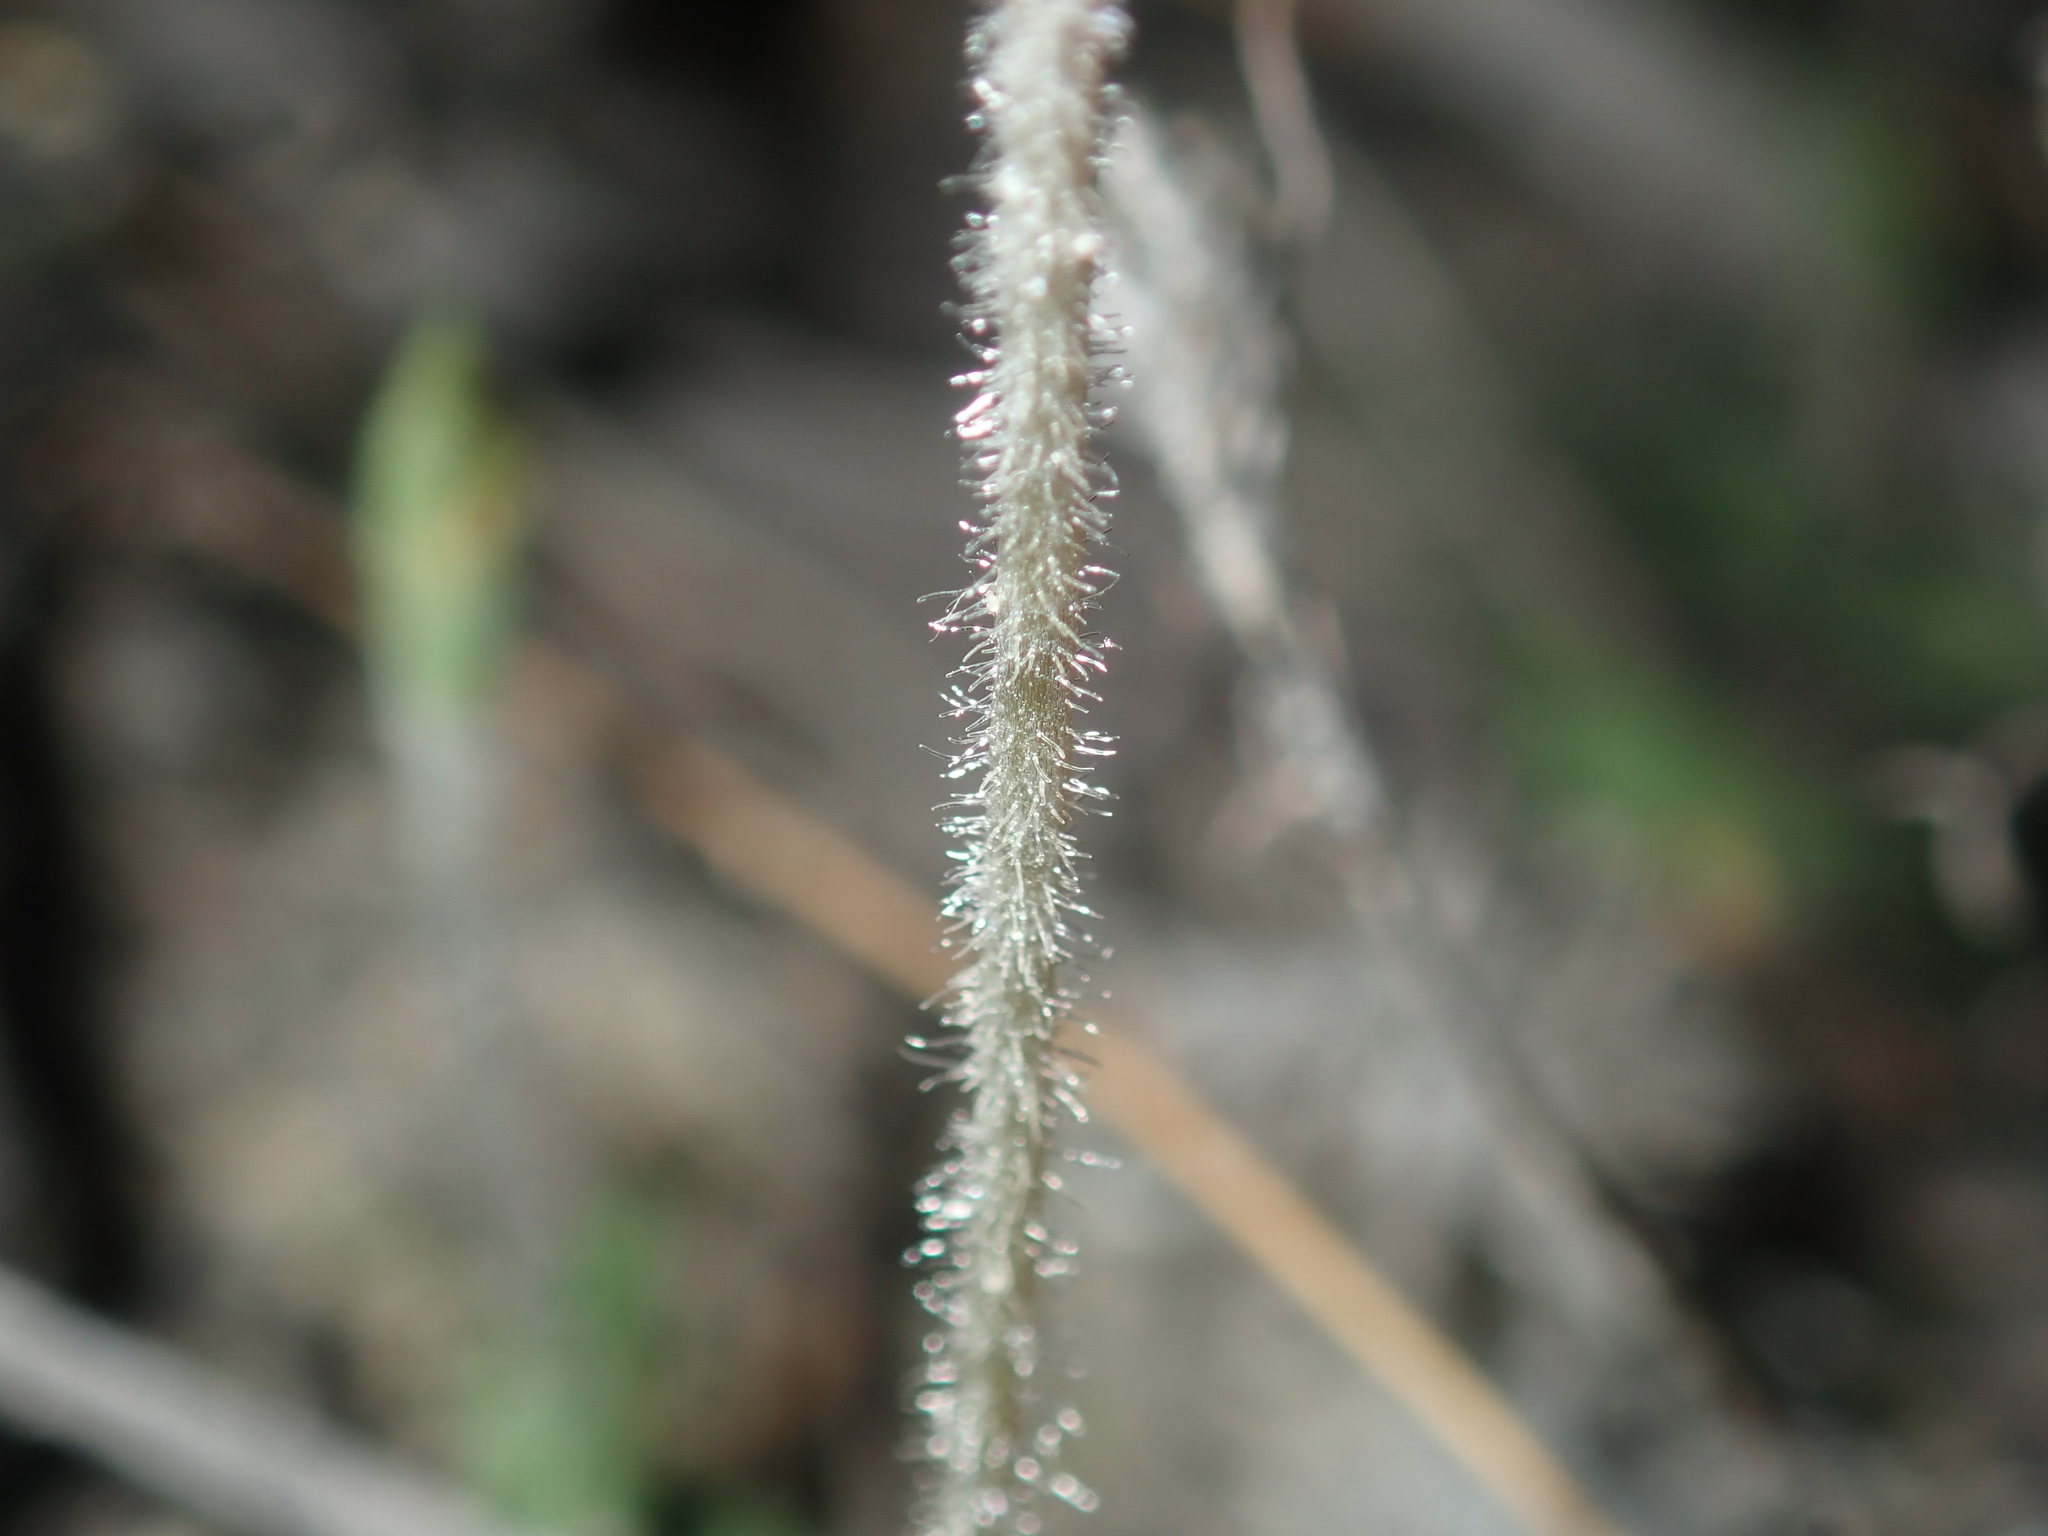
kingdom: Plantae
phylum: Tracheophyta
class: Liliopsida
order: Asparagales
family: Orchidaceae
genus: Pterostylis
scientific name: Pterostylis setulosa
